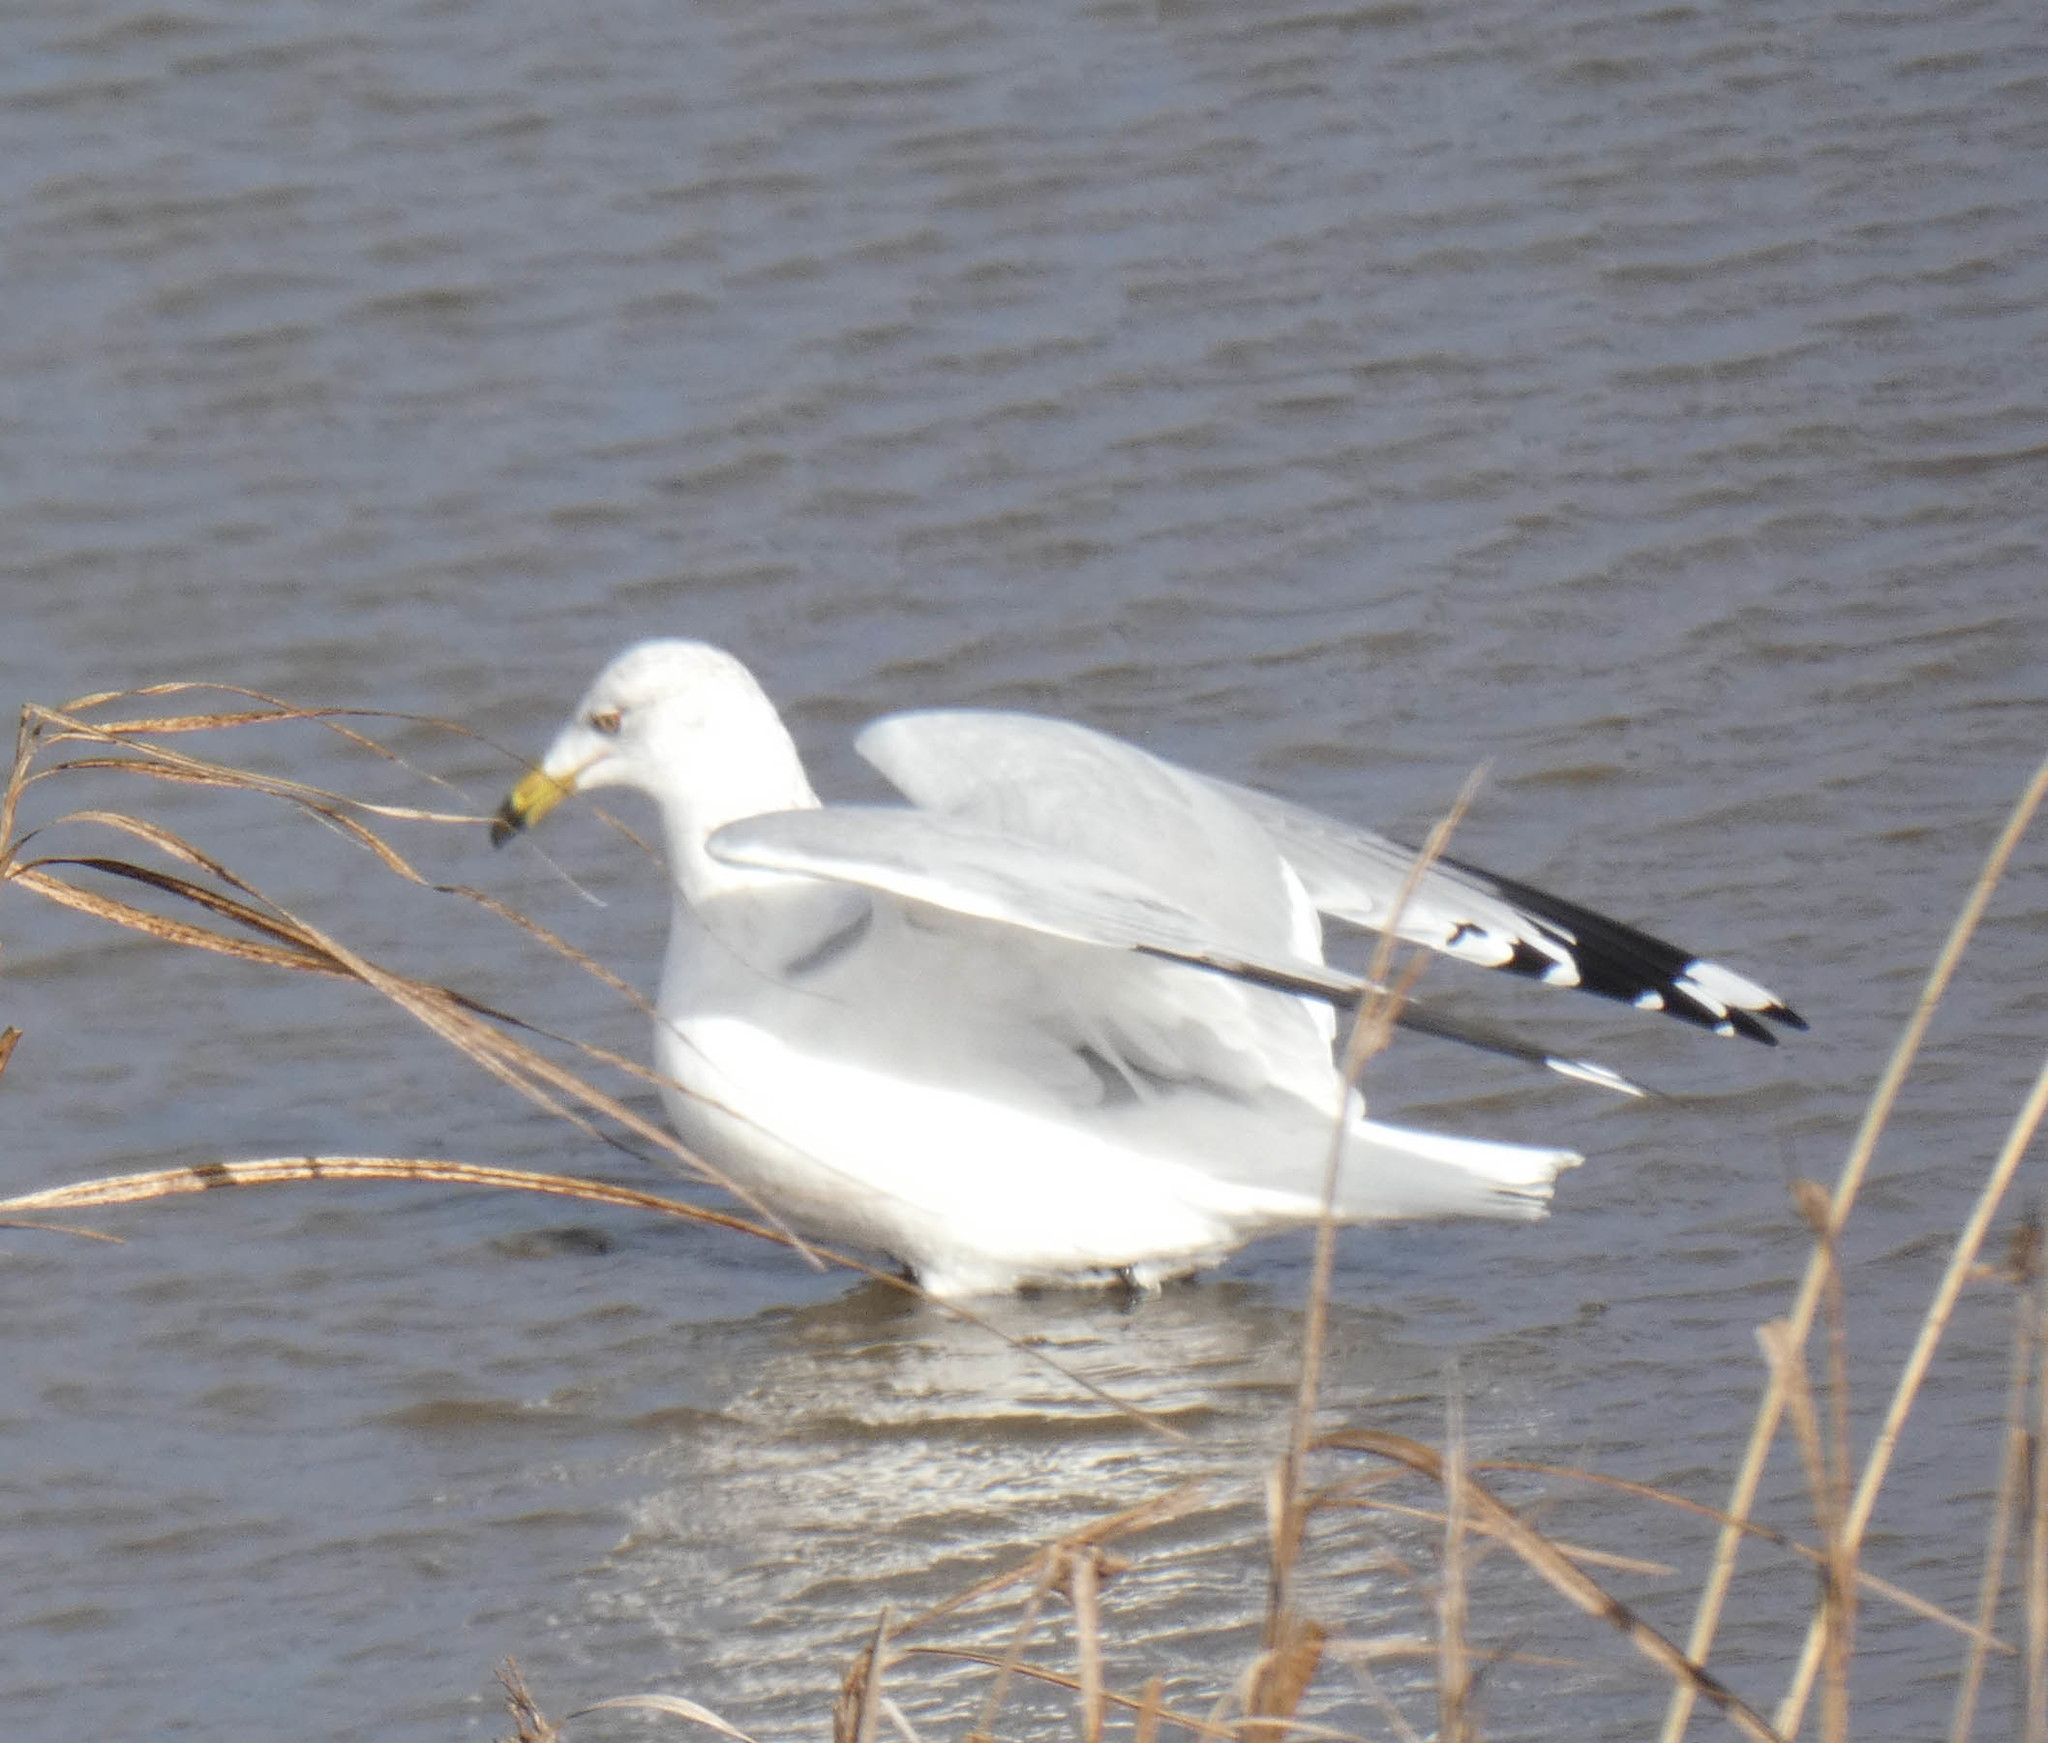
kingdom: Animalia
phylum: Chordata
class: Aves
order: Charadriiformes
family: Laridae
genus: Larus
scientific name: Larus delawarensis
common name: Ring-billed gull
